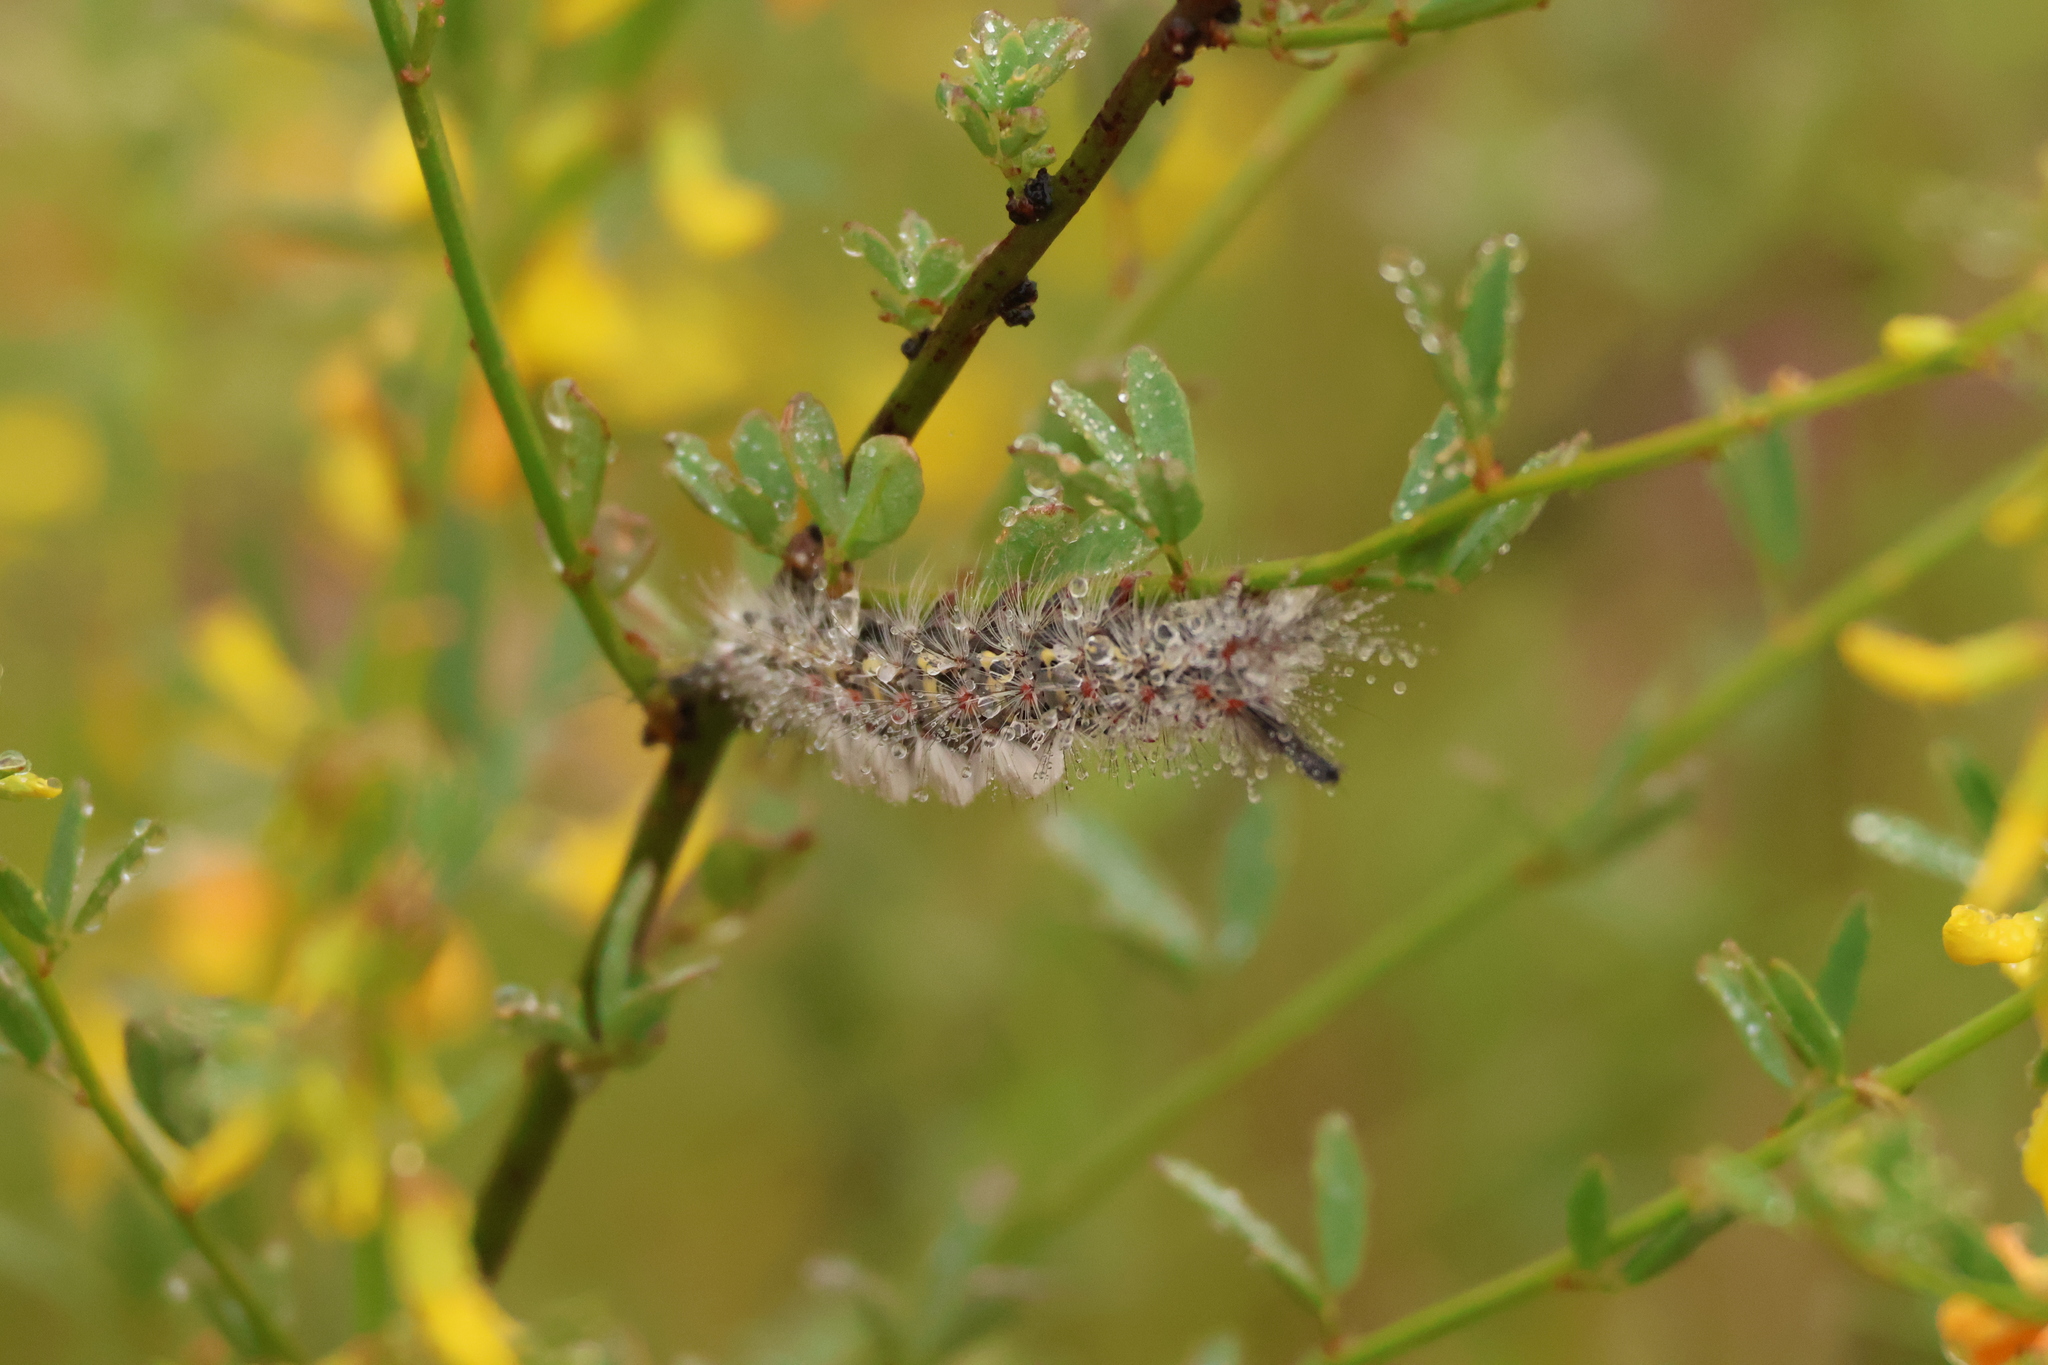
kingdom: Animalia
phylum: Arthropoda
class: Insecta
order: Lepidoptera
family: Erebidae
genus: Orgyia
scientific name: Orgyia vetusta
